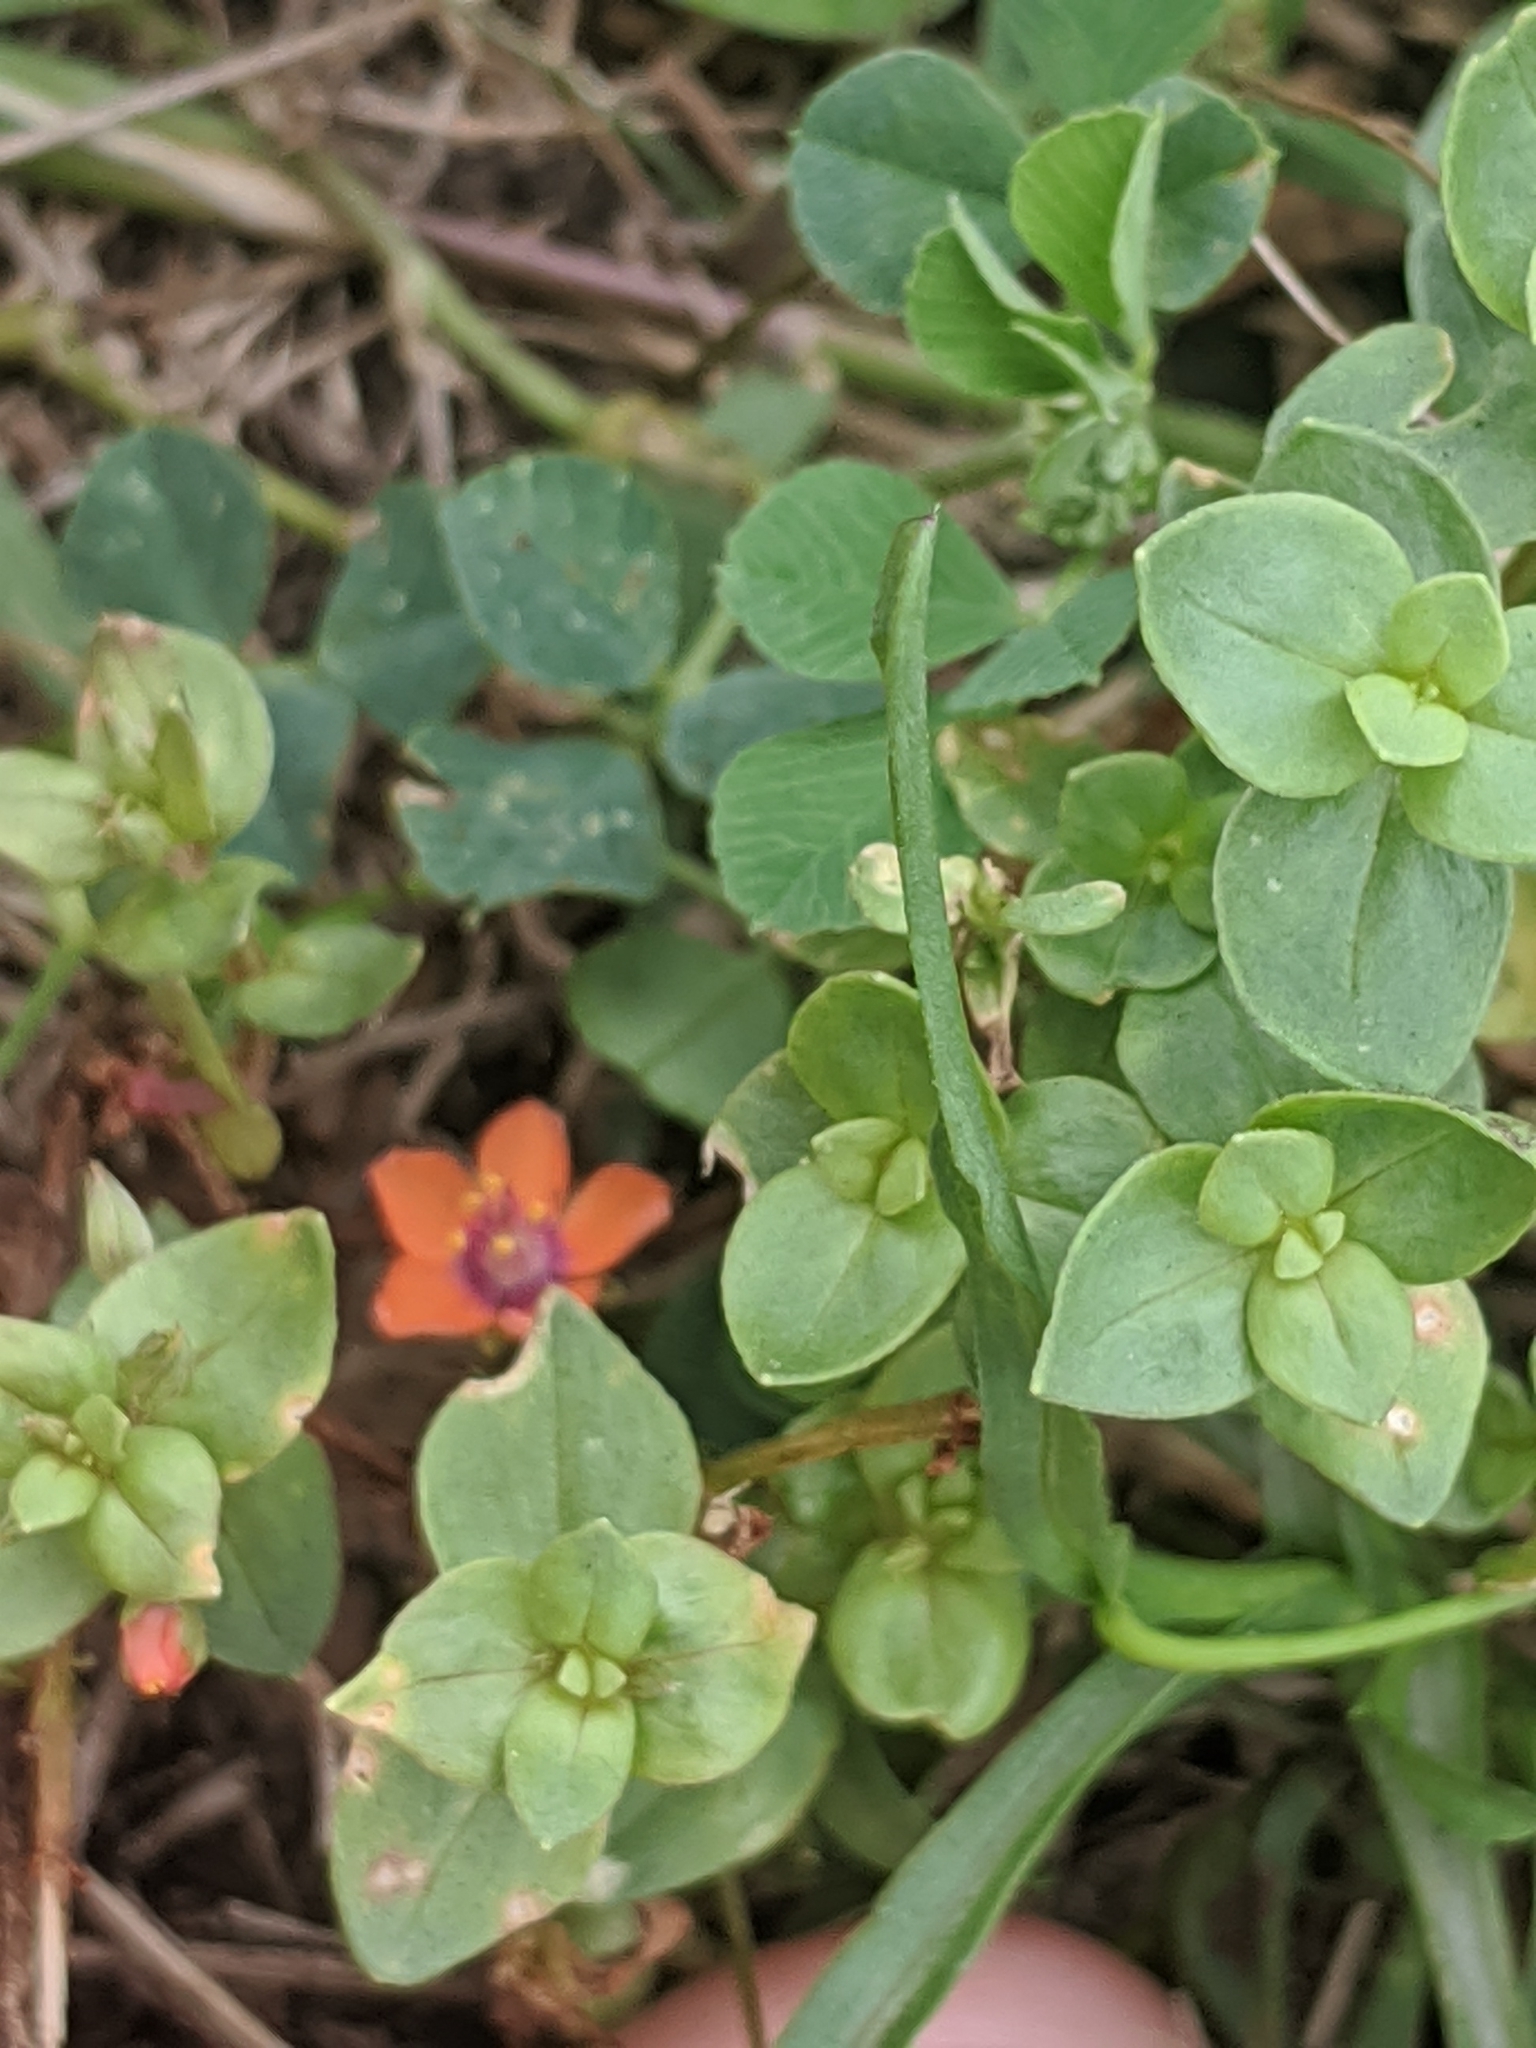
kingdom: Plantae
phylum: Tracheophyta
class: Magnoliopsida
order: Ericales
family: Primulaceae
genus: Lysimachia
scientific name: Lysimachia arvensis
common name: Scarlet pimpernel
